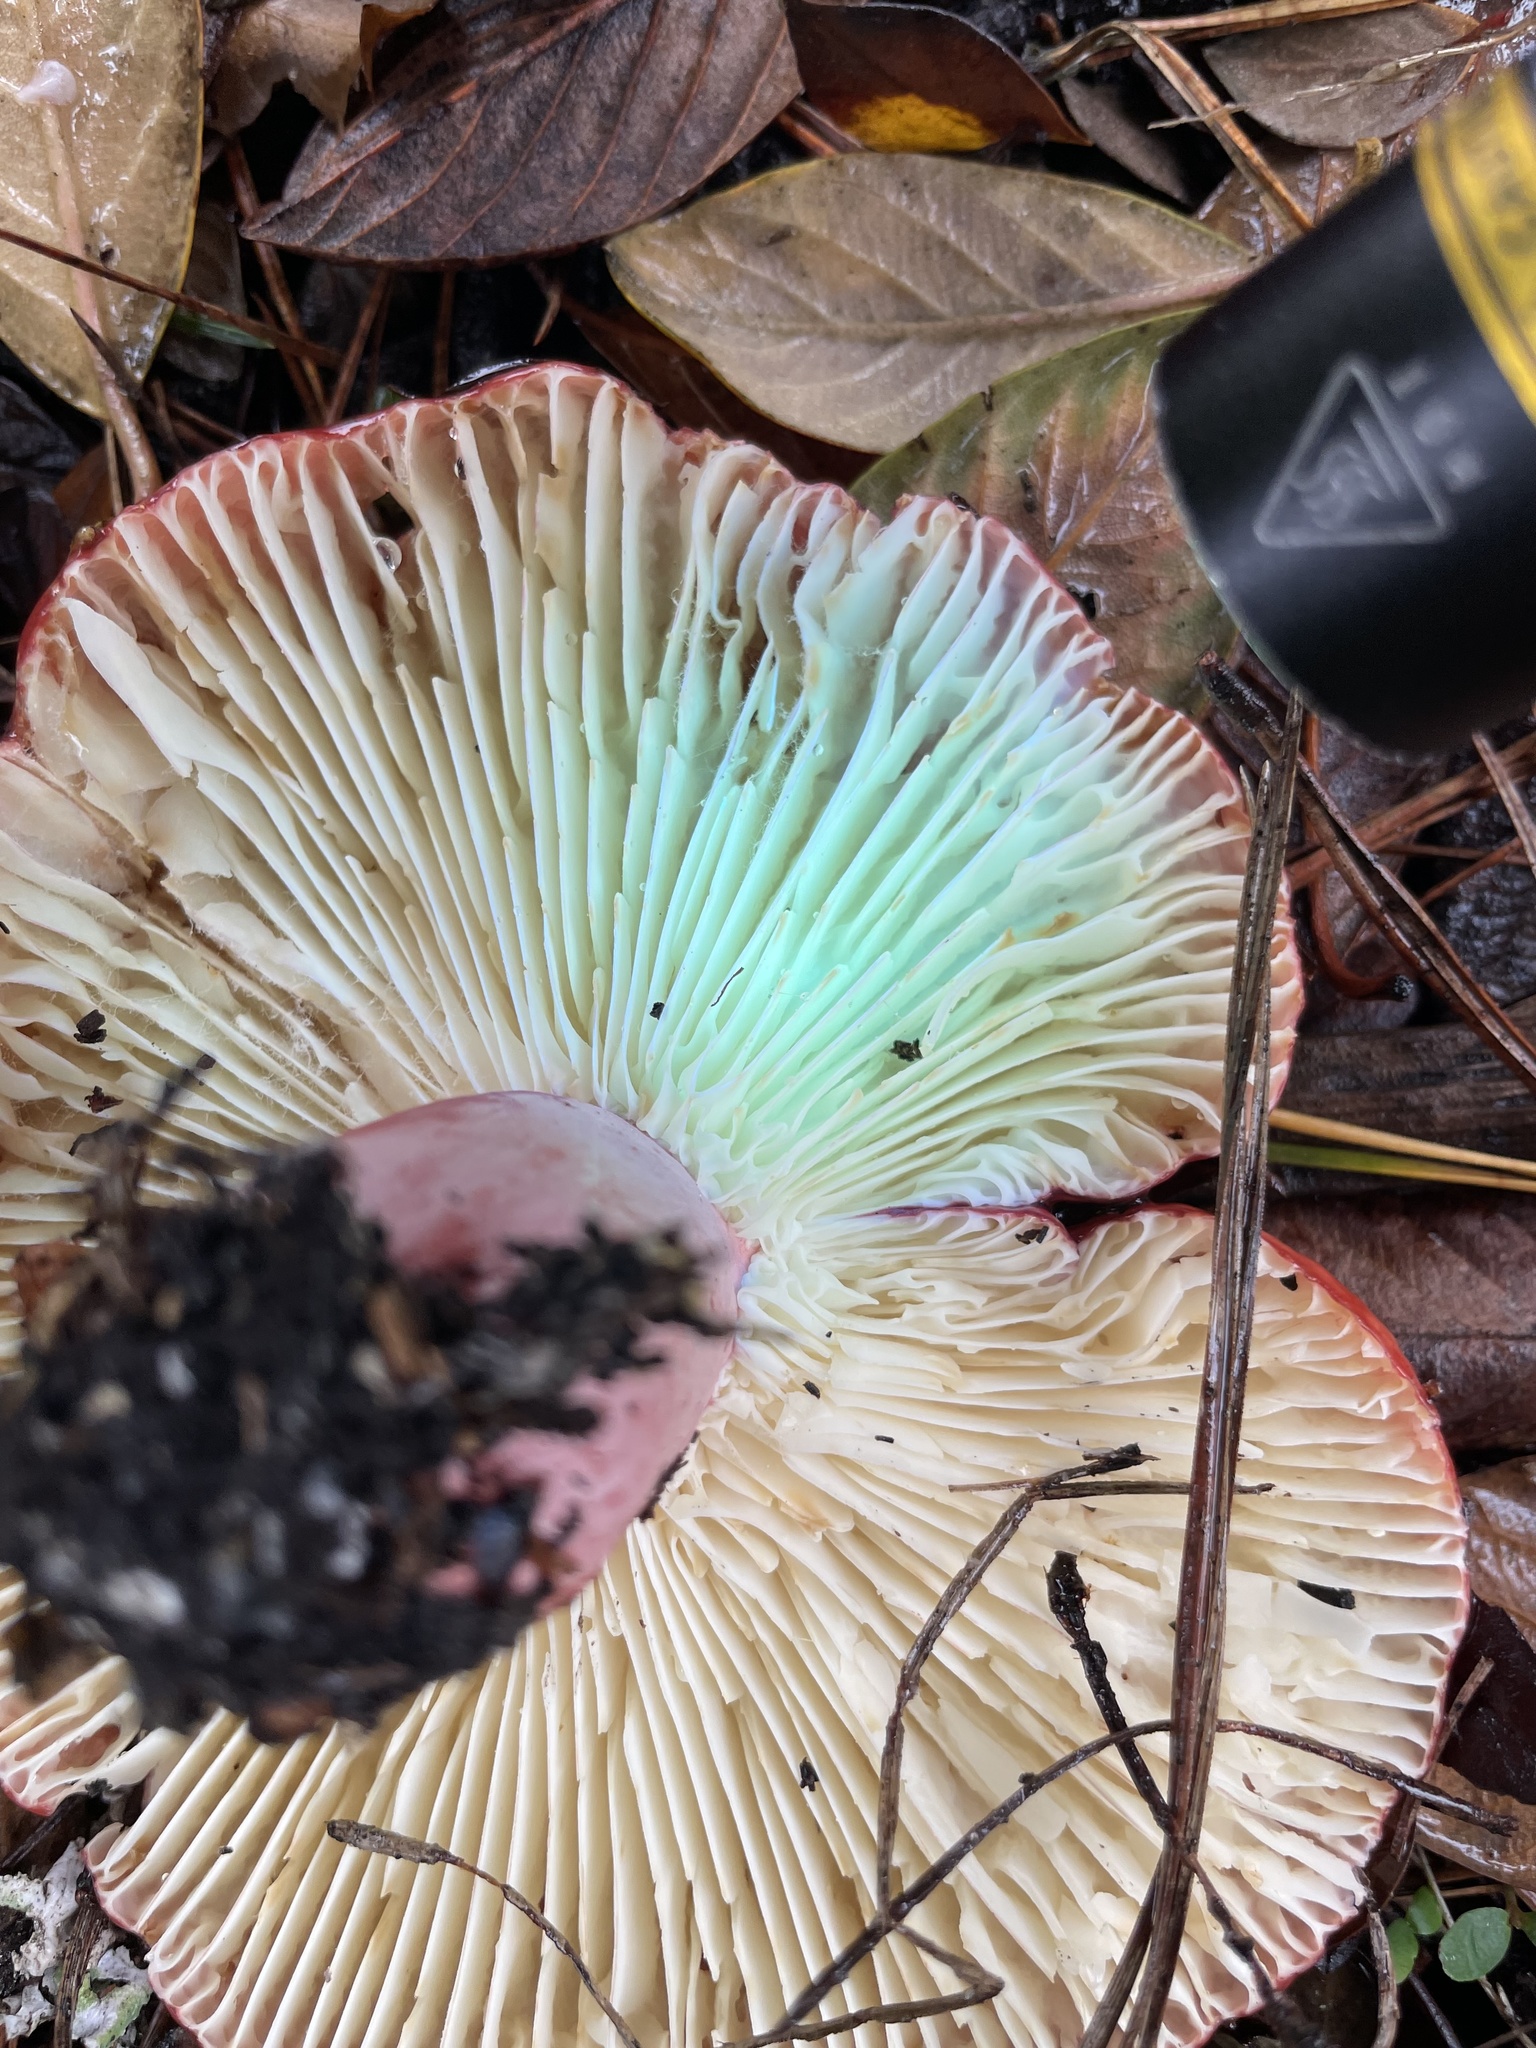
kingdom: Fungi
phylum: Basidiomycota
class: Agaricomycetes
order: Russulales
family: Russulaceae
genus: Russula
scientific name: Russula rhodocephala
